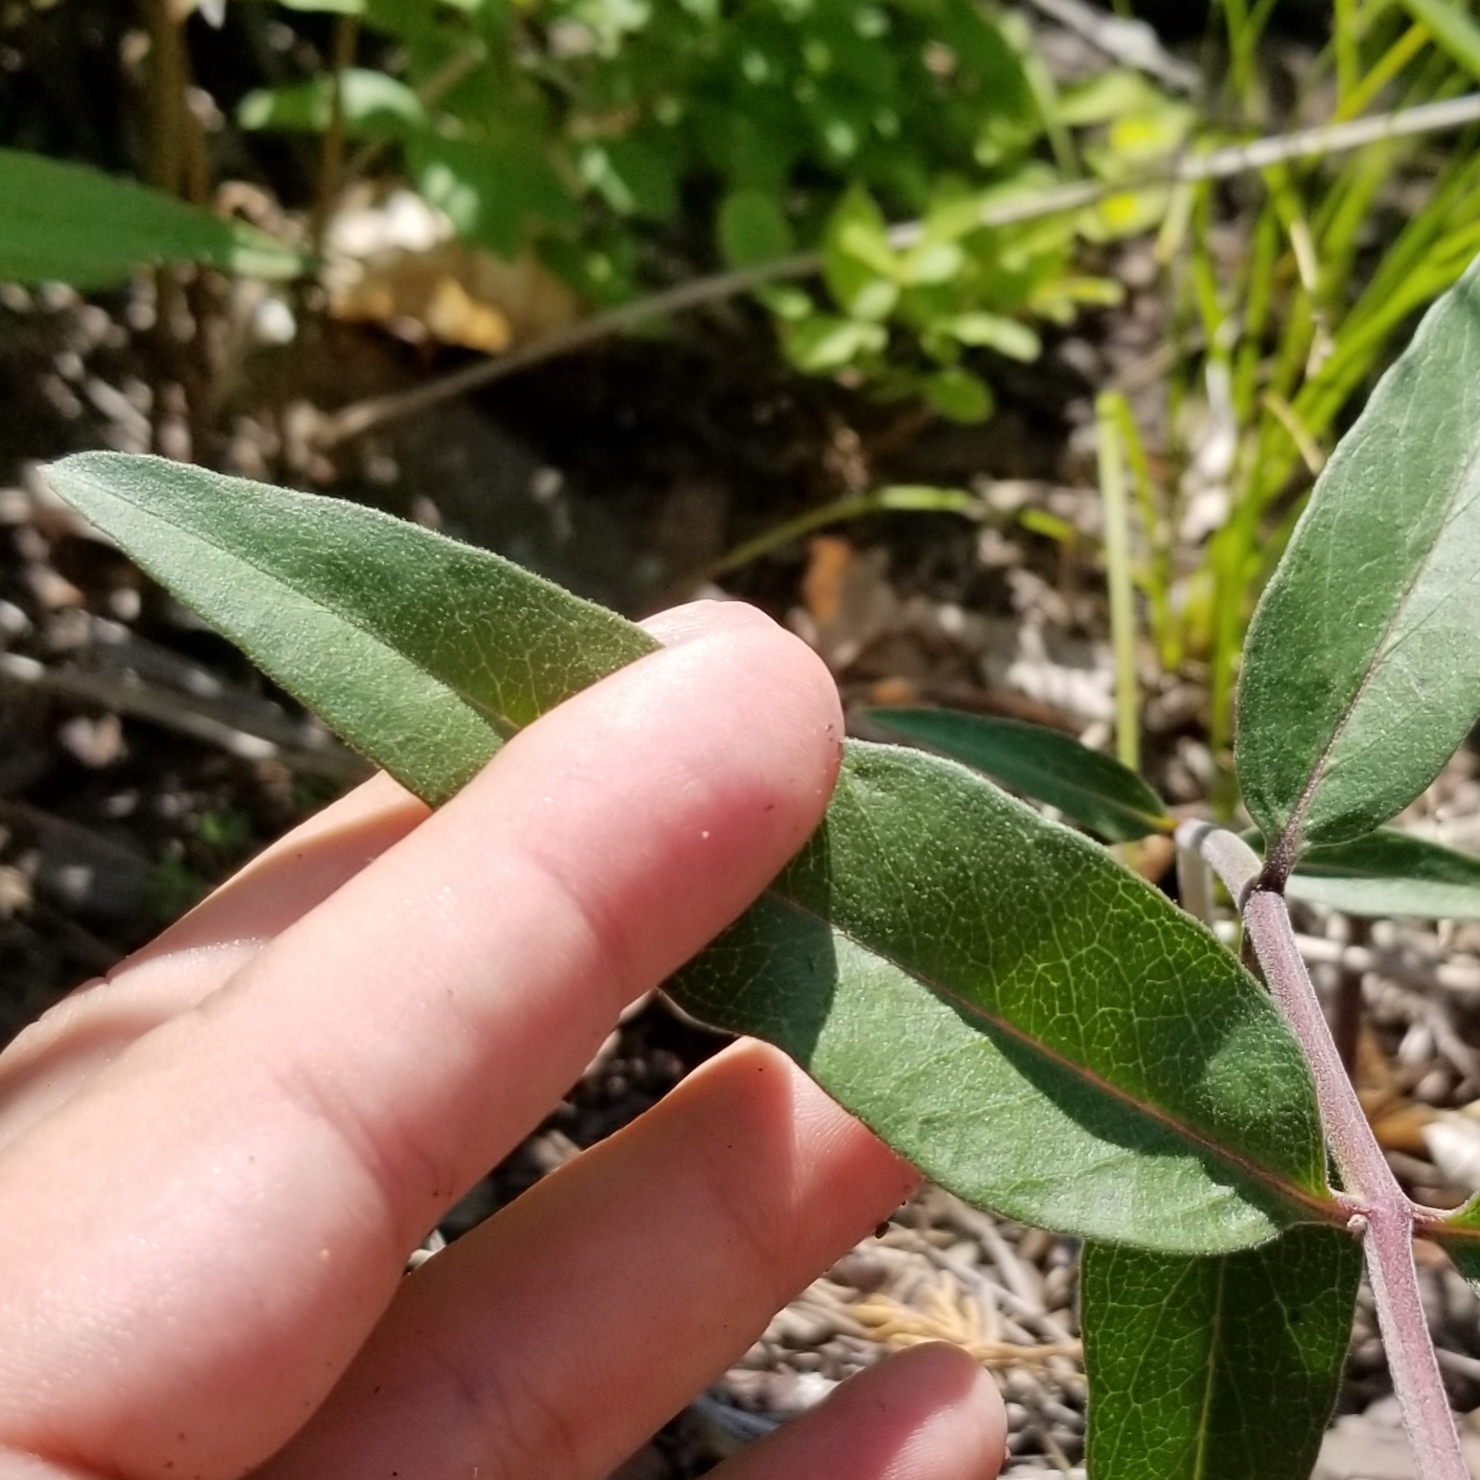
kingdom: Plantae
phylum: Tracheophyta
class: Magnoliopsida
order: Gentianales
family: Apocynaceae
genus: Asclepias
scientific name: Asclepias viridiflora
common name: Green comet milkweed
